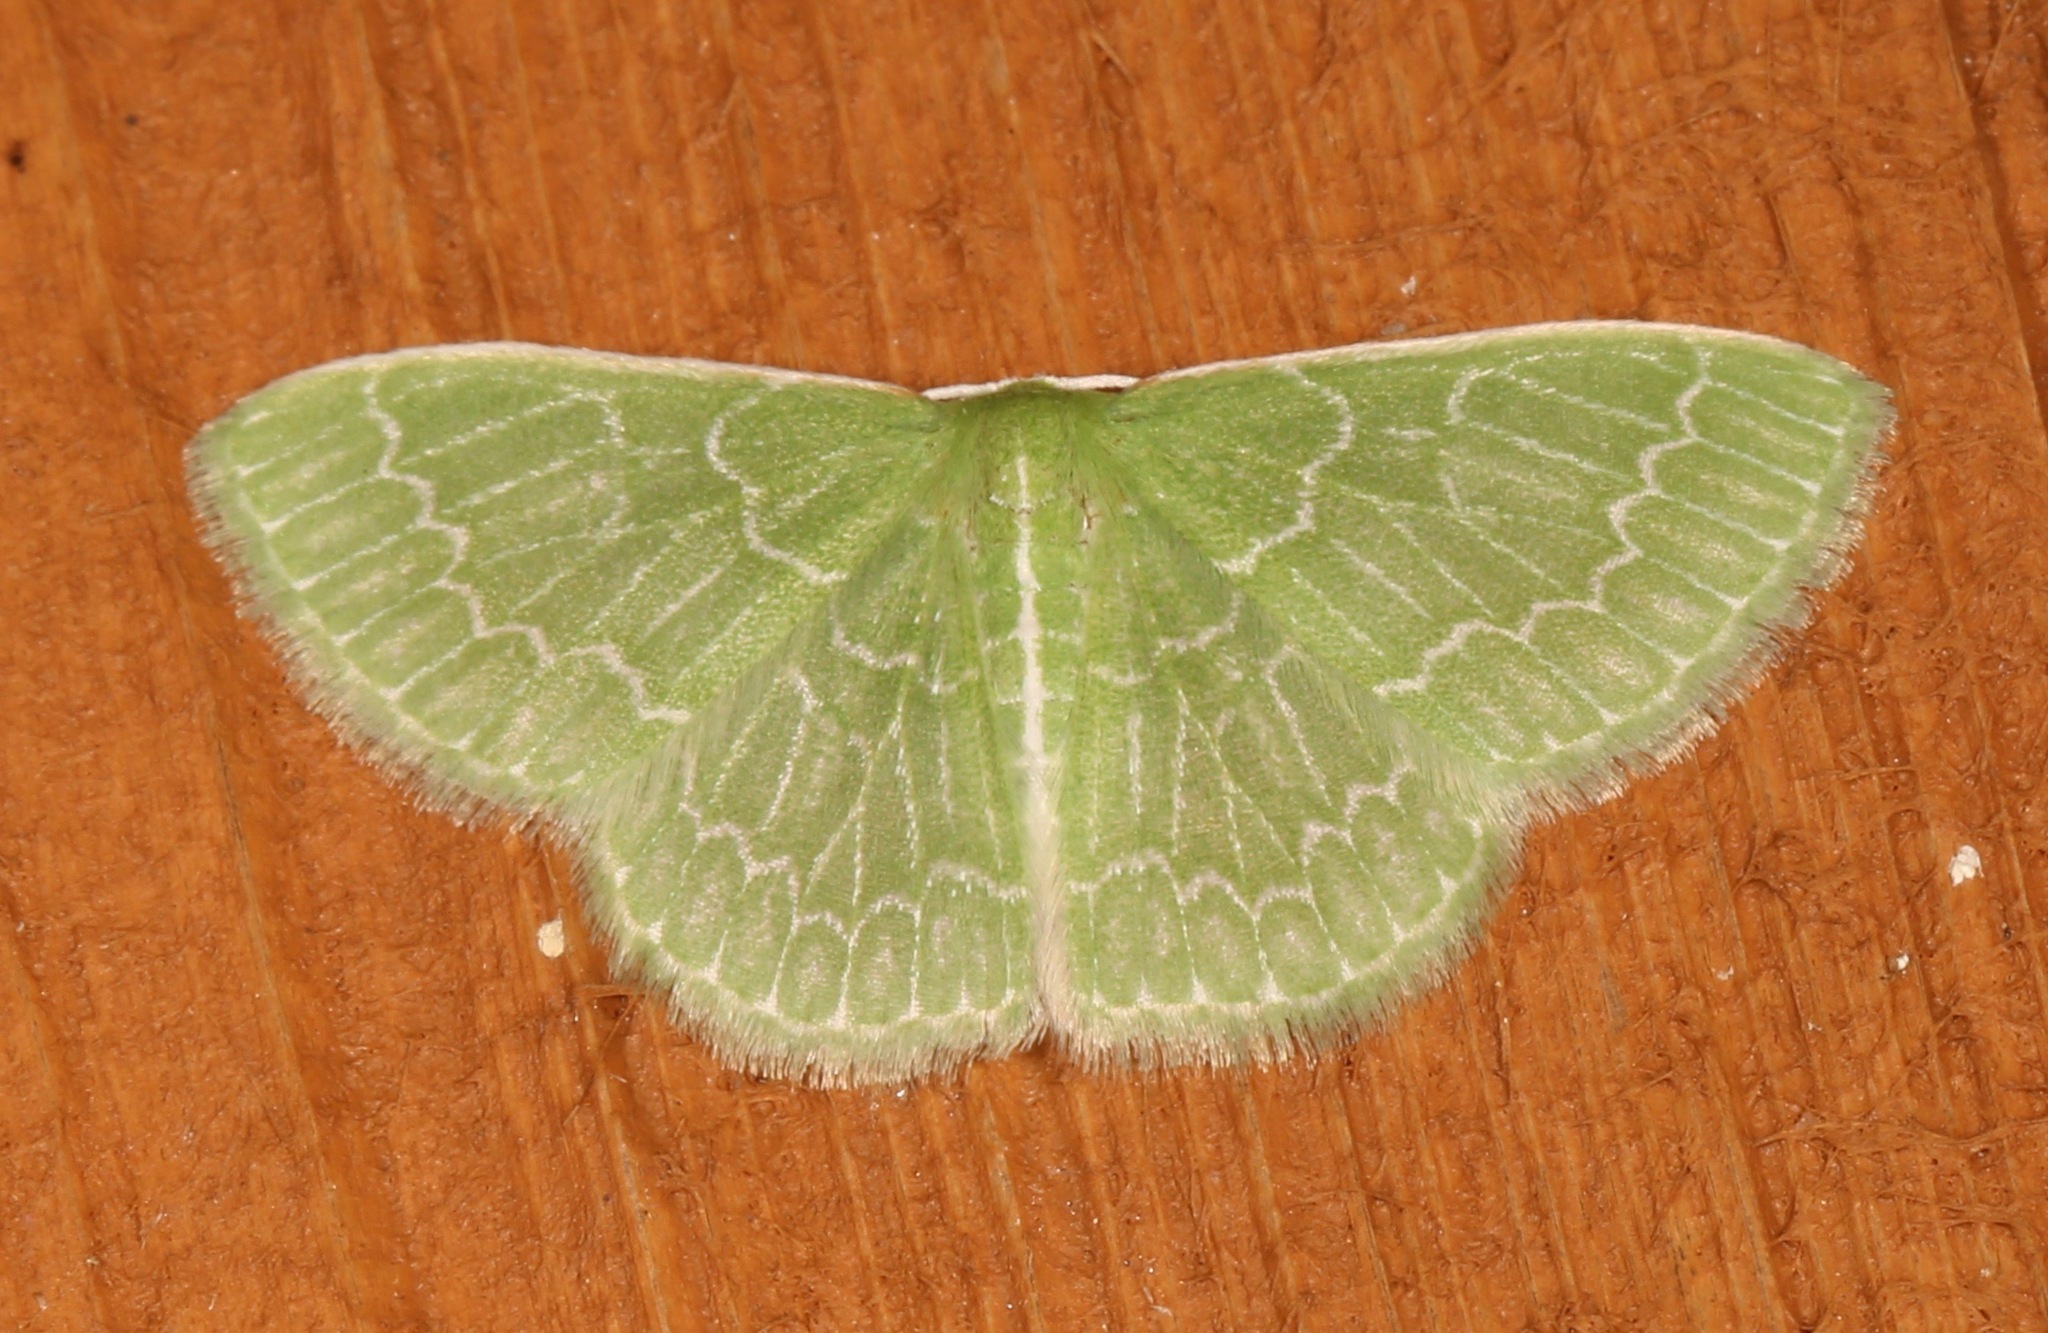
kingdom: Animalia
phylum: Arthropoda
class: Insecta
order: Lepidoptera
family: Geometridae
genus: Synchlora
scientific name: Synchlora frondaria
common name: Southern emerald
